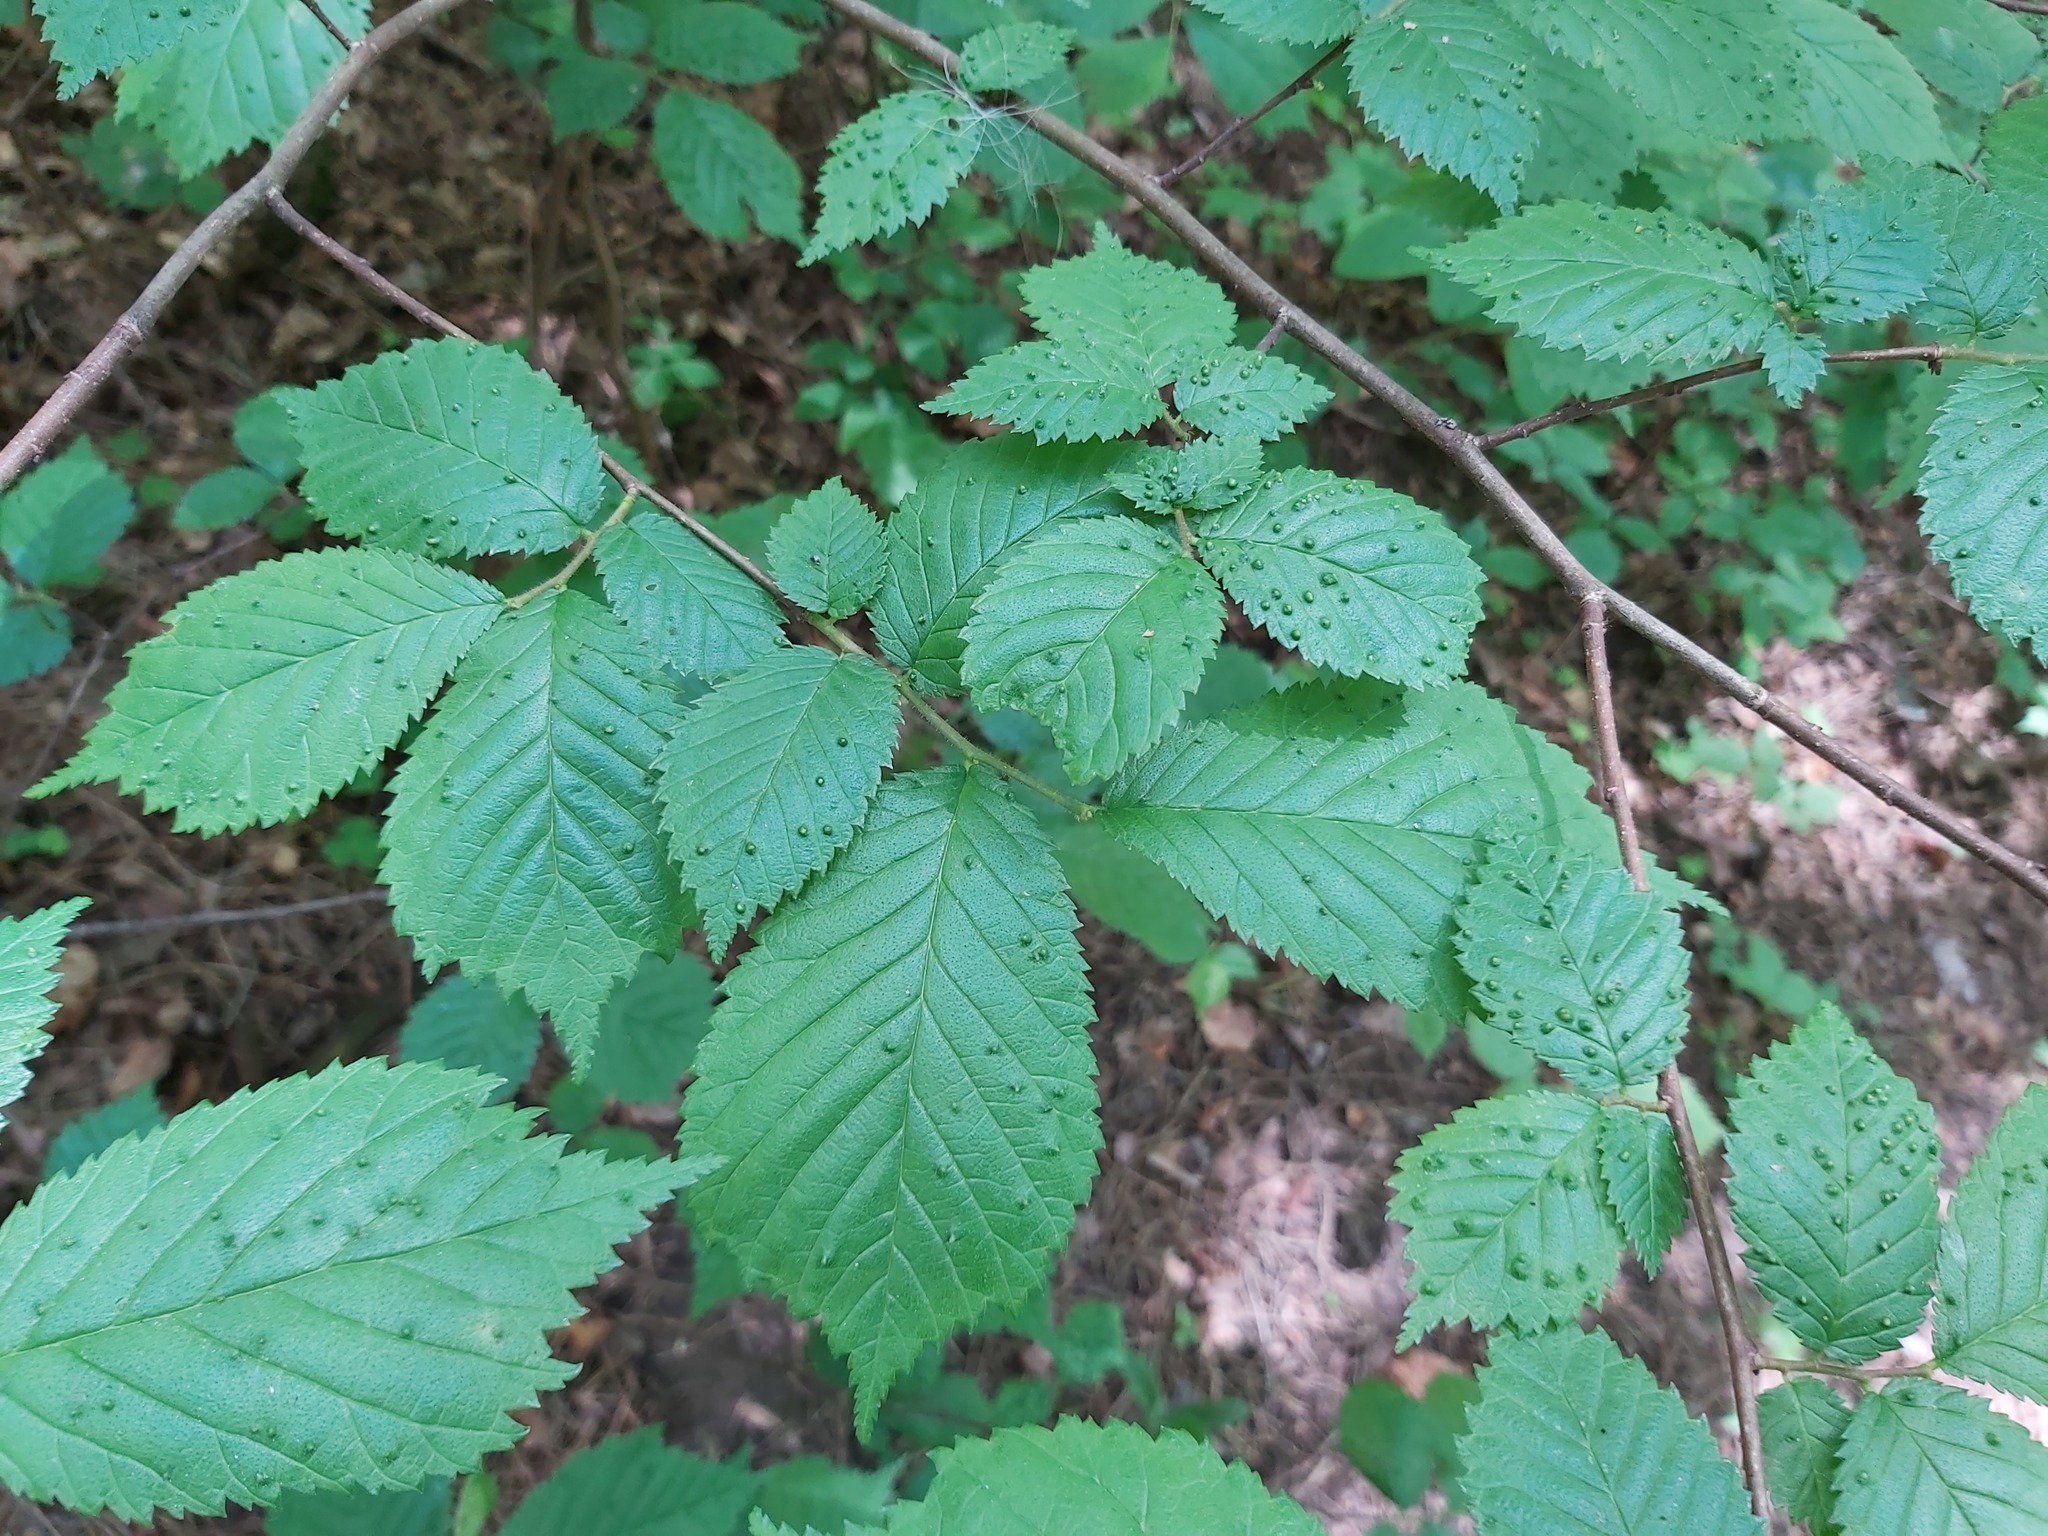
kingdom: Animalia
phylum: Arthropoda
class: Arachnida
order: Trombidiformes
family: Eriophyidae
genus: Aceria
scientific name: Aceria brevipunctata
